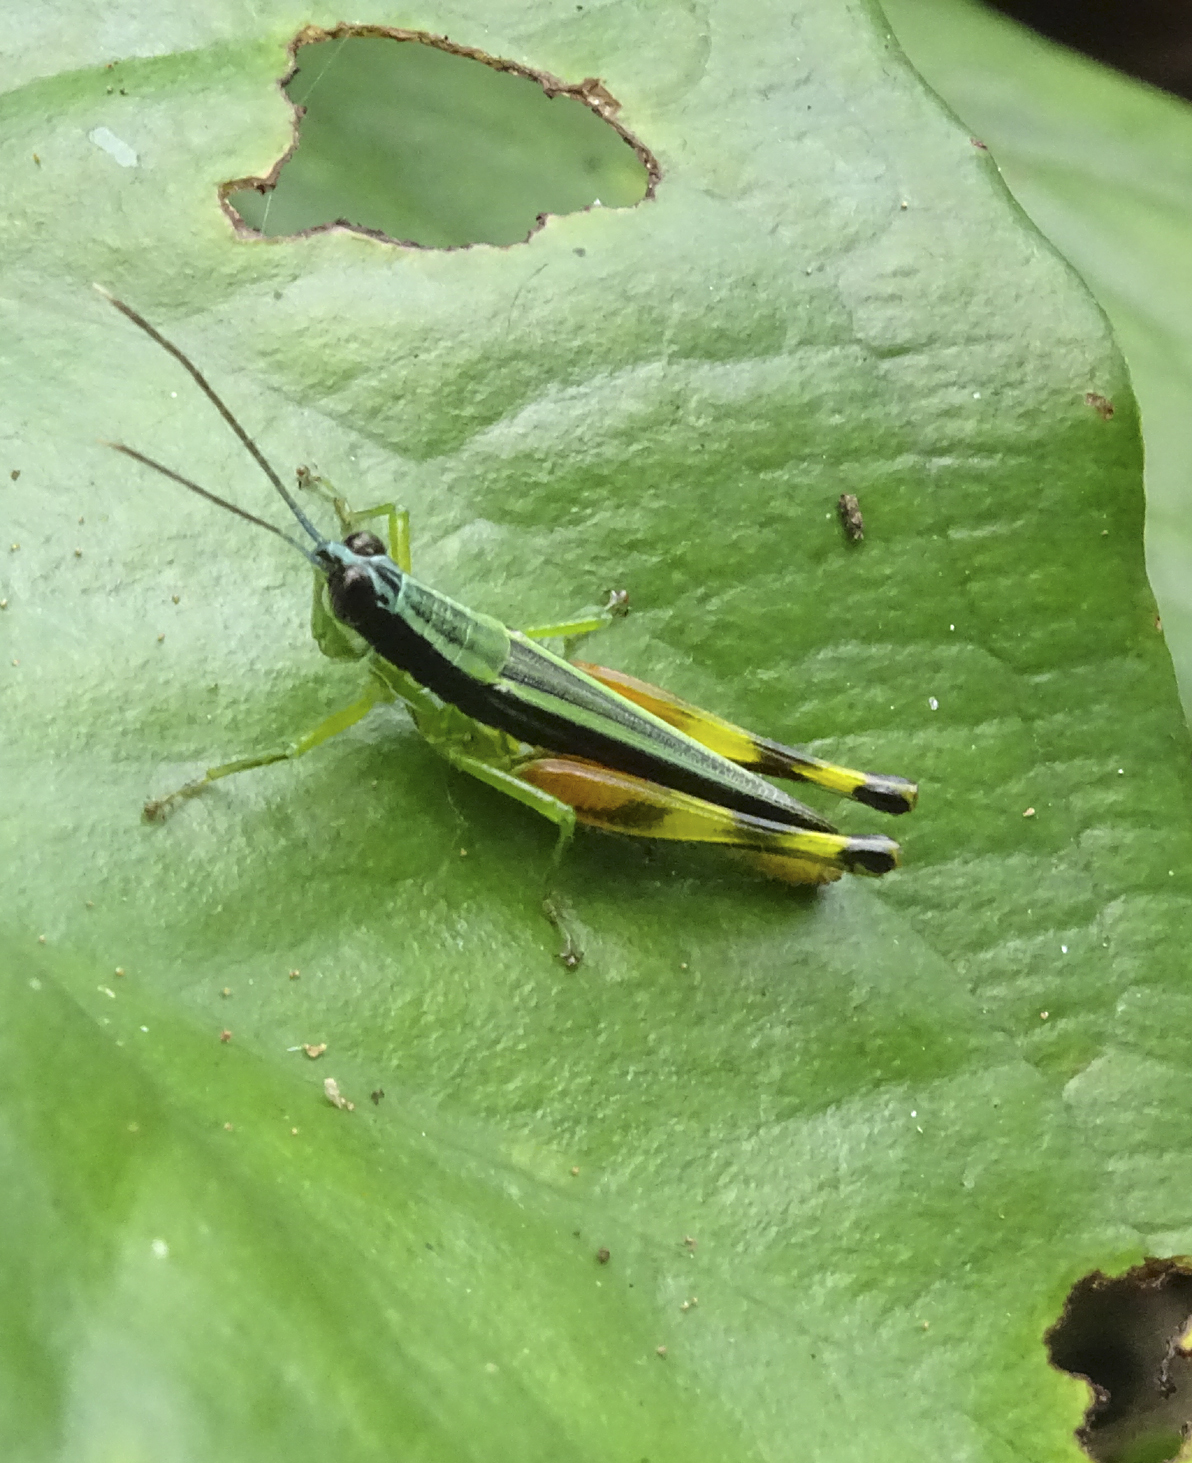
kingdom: Animalia
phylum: Arthropoda
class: Insecta
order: Orthoptera
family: Acrididae
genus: Stenopola
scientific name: Stenopola boliviana
